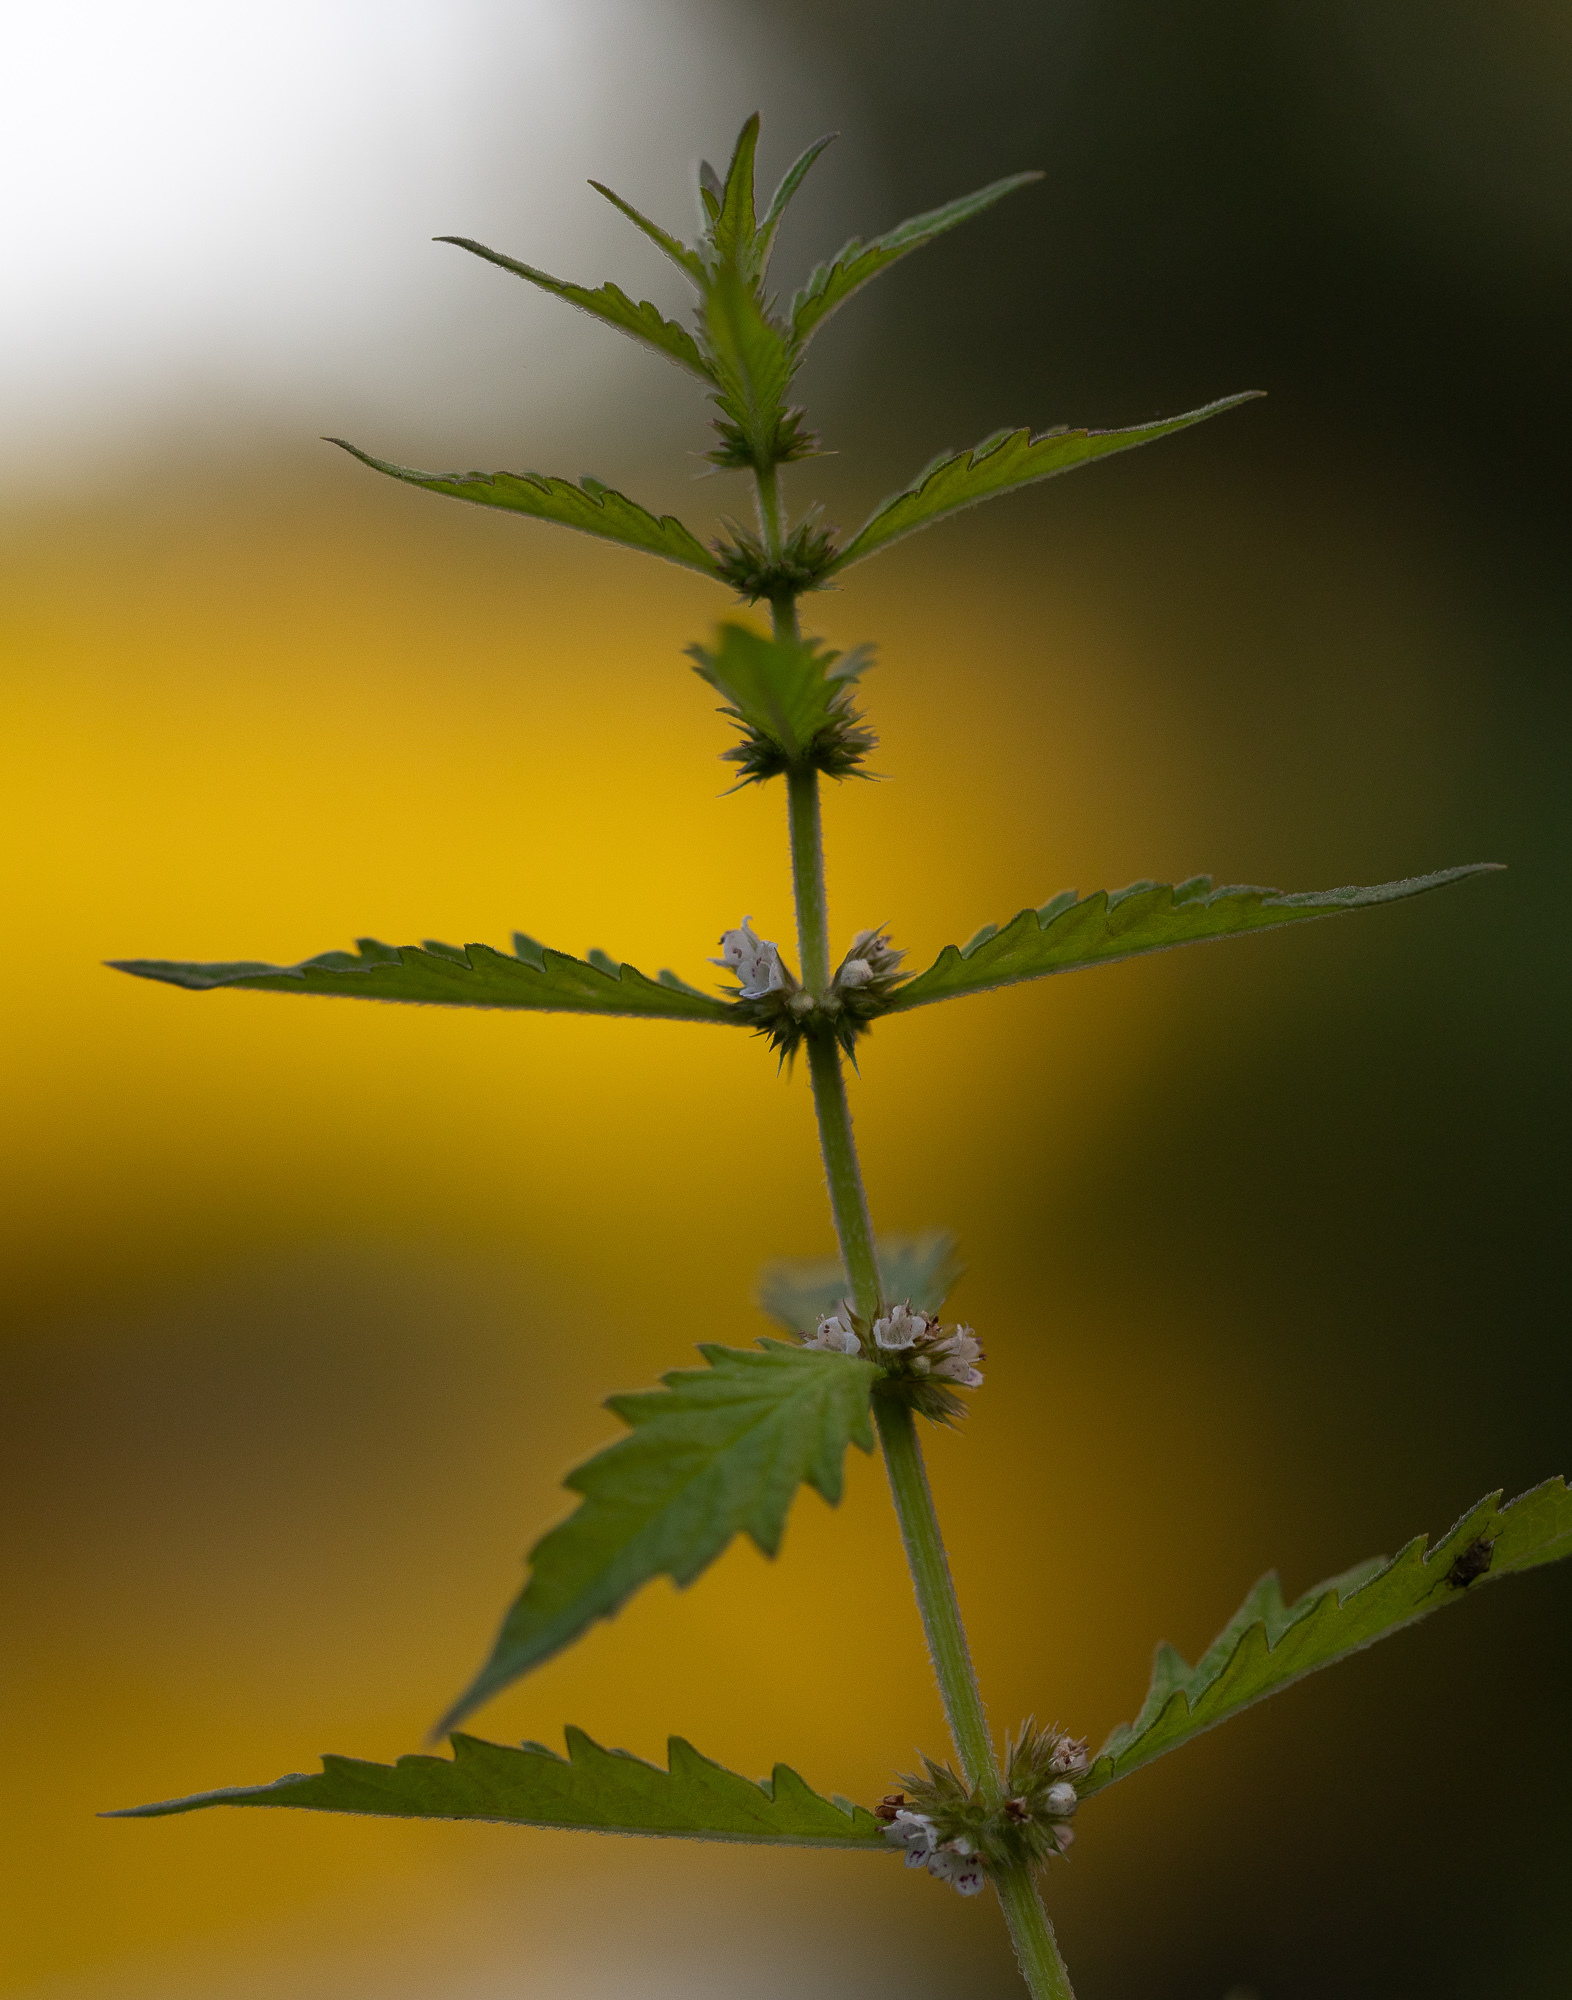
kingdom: Plantae
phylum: Tracheophyta
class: Magnoliopsida
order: Lamiales
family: Lamiaceae
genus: Lycopus
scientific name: Lycopus europaeus
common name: European bugleweed
